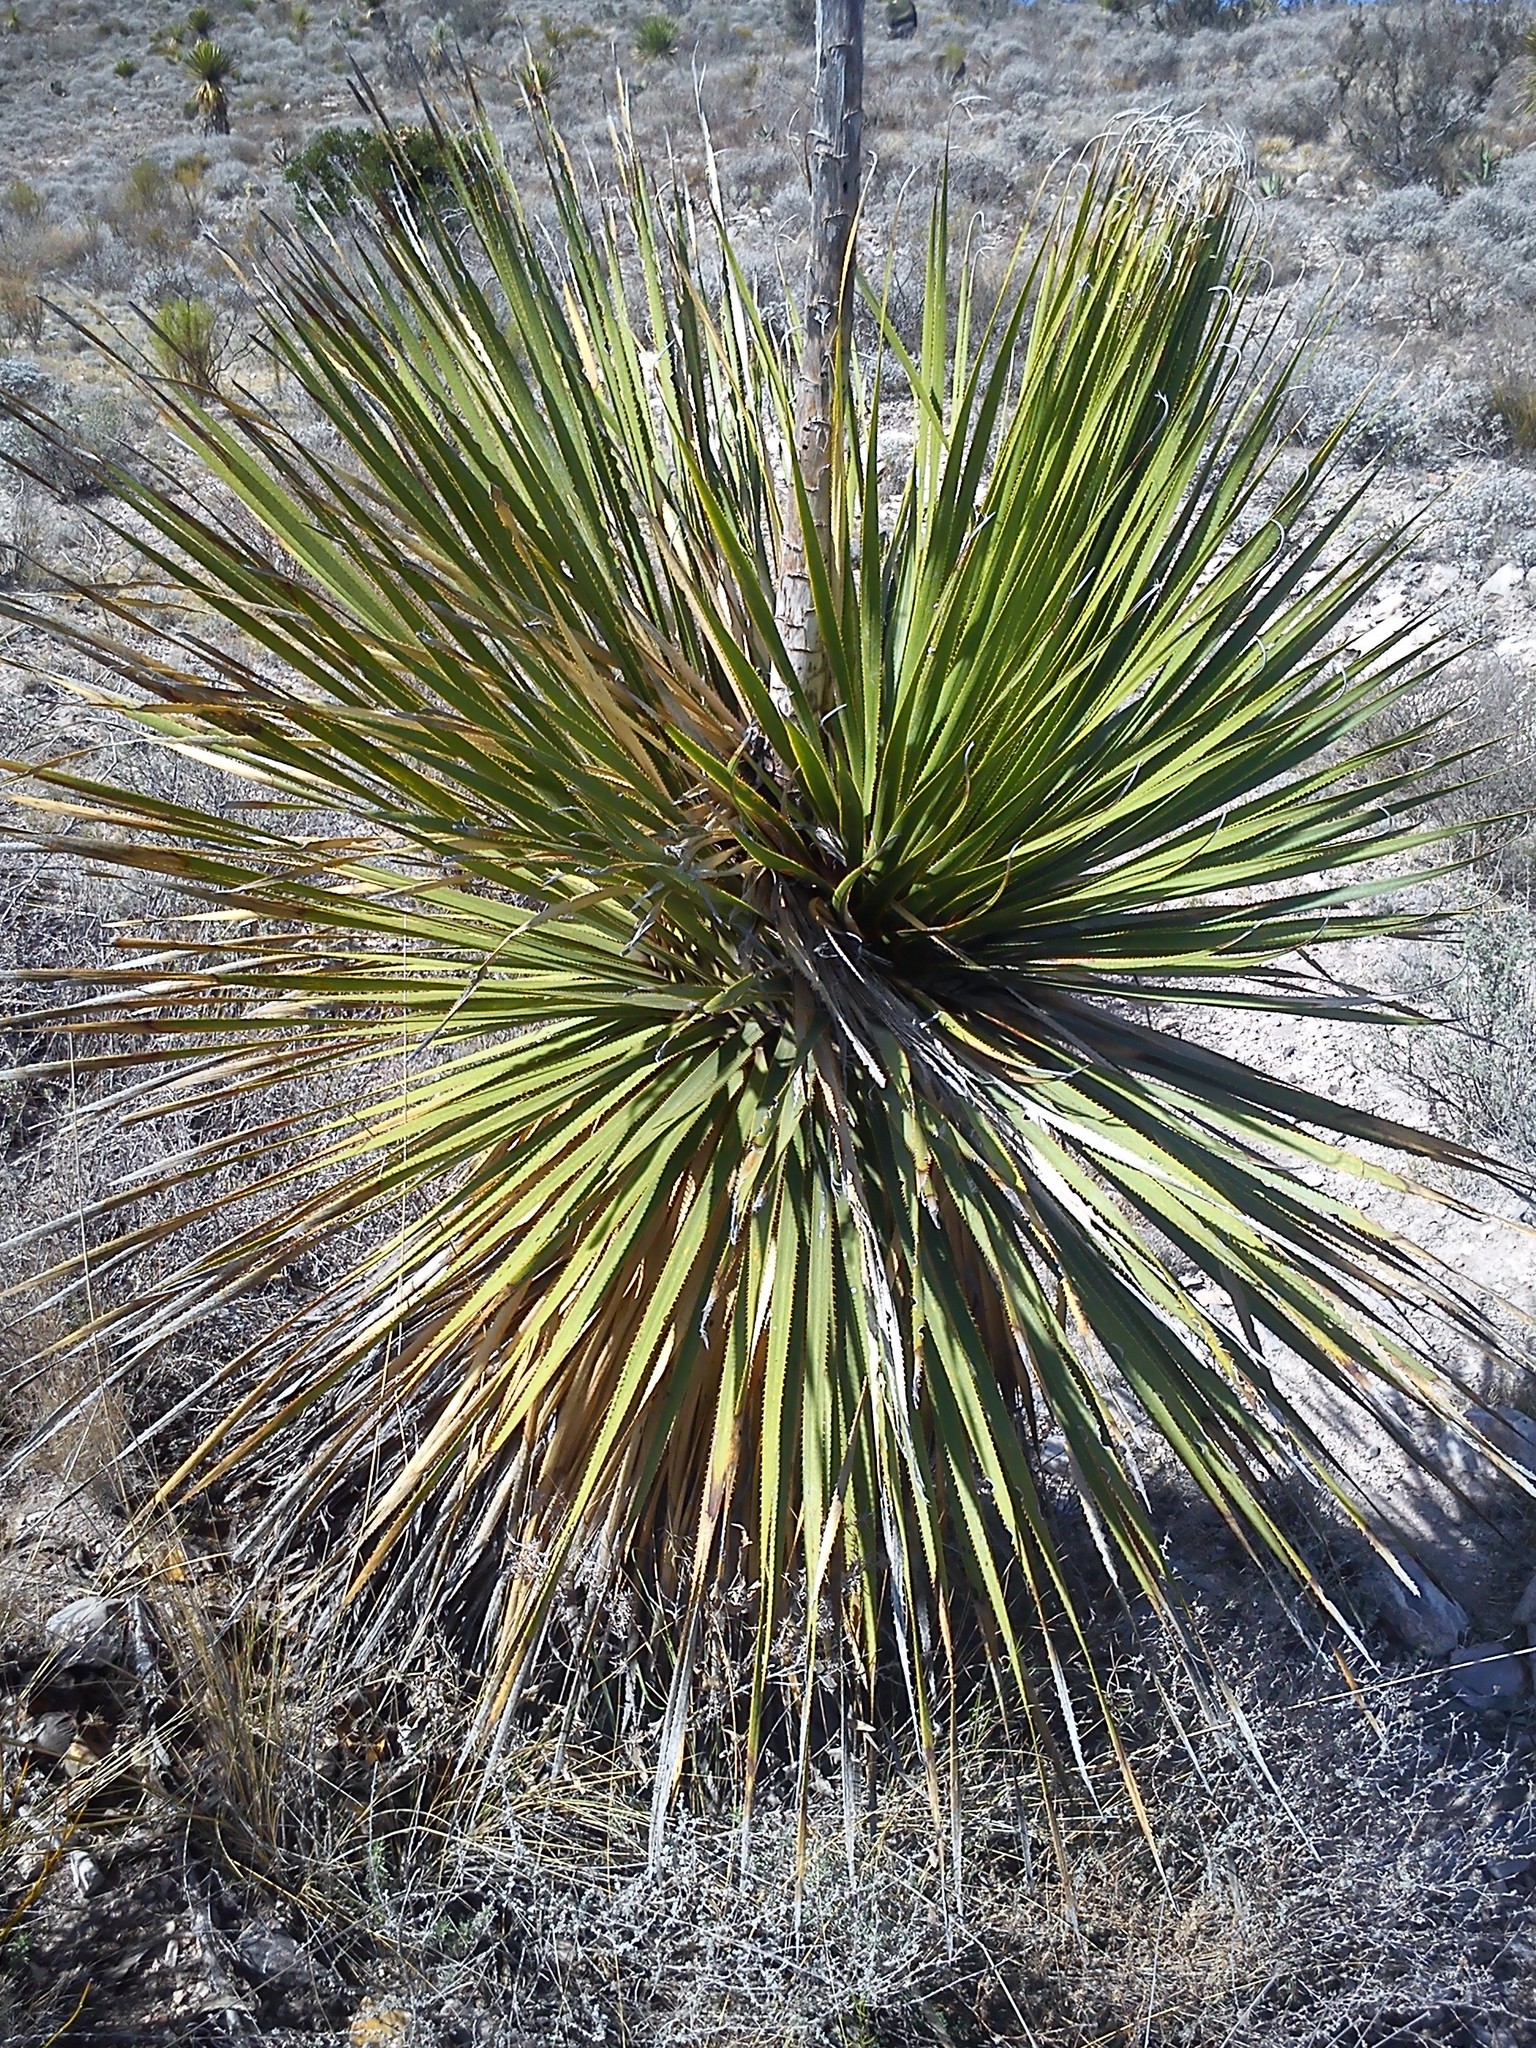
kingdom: Plantae
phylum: Tracheophyta
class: Liliopsida
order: Asparagales
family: Asparagaceae
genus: Dasylirion
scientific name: Dasylirion acrotrichum
